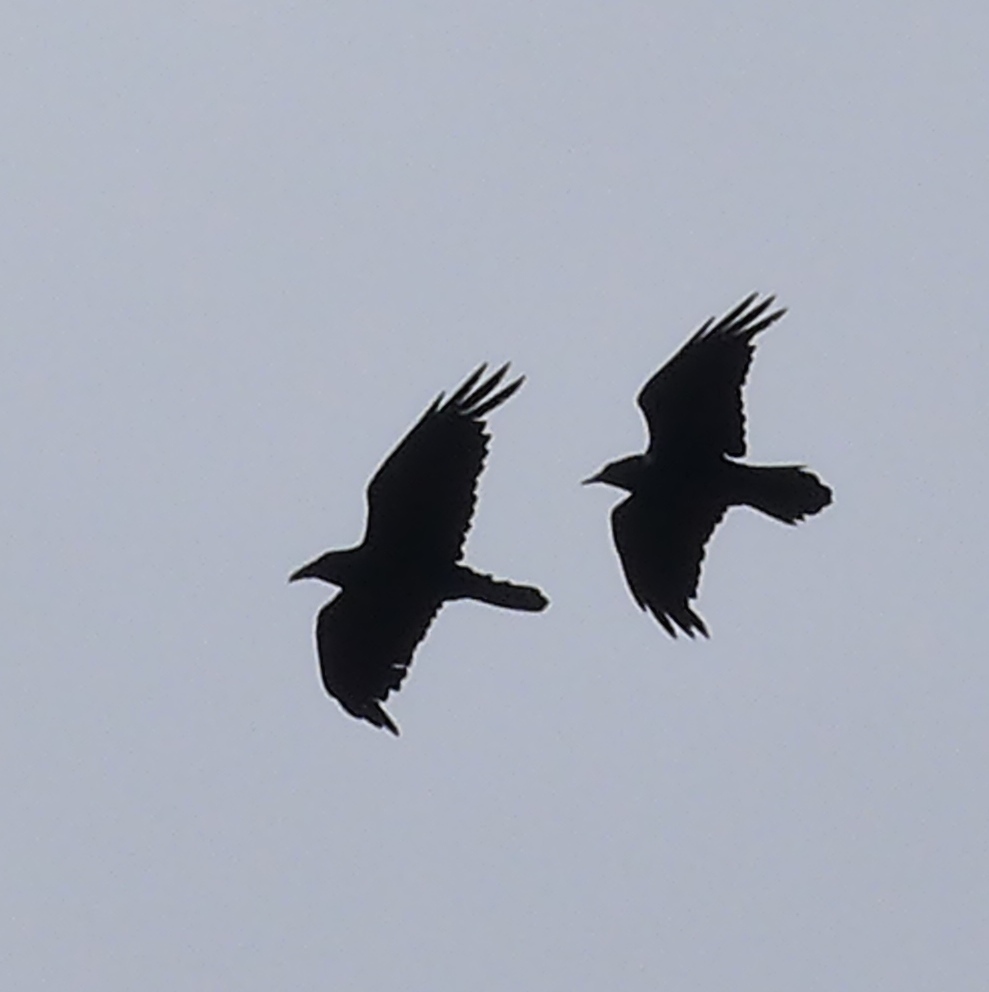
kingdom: Animalia
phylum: Chordata
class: Aves
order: Passeriformes
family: Corvidae
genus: Corvus
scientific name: Corvus corax
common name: Common raven
